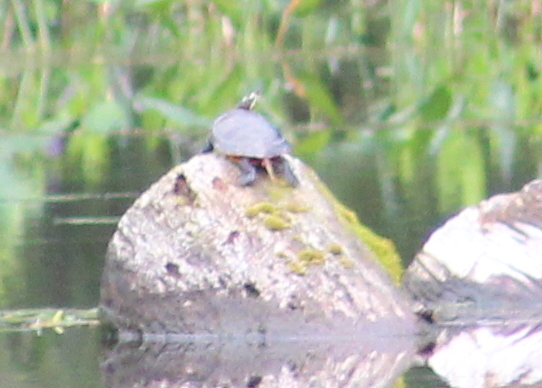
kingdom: Animalia
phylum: Chordata
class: Testudines
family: Emydidae
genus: Chrysemys
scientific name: Chrysemys picta
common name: Painted turtle
